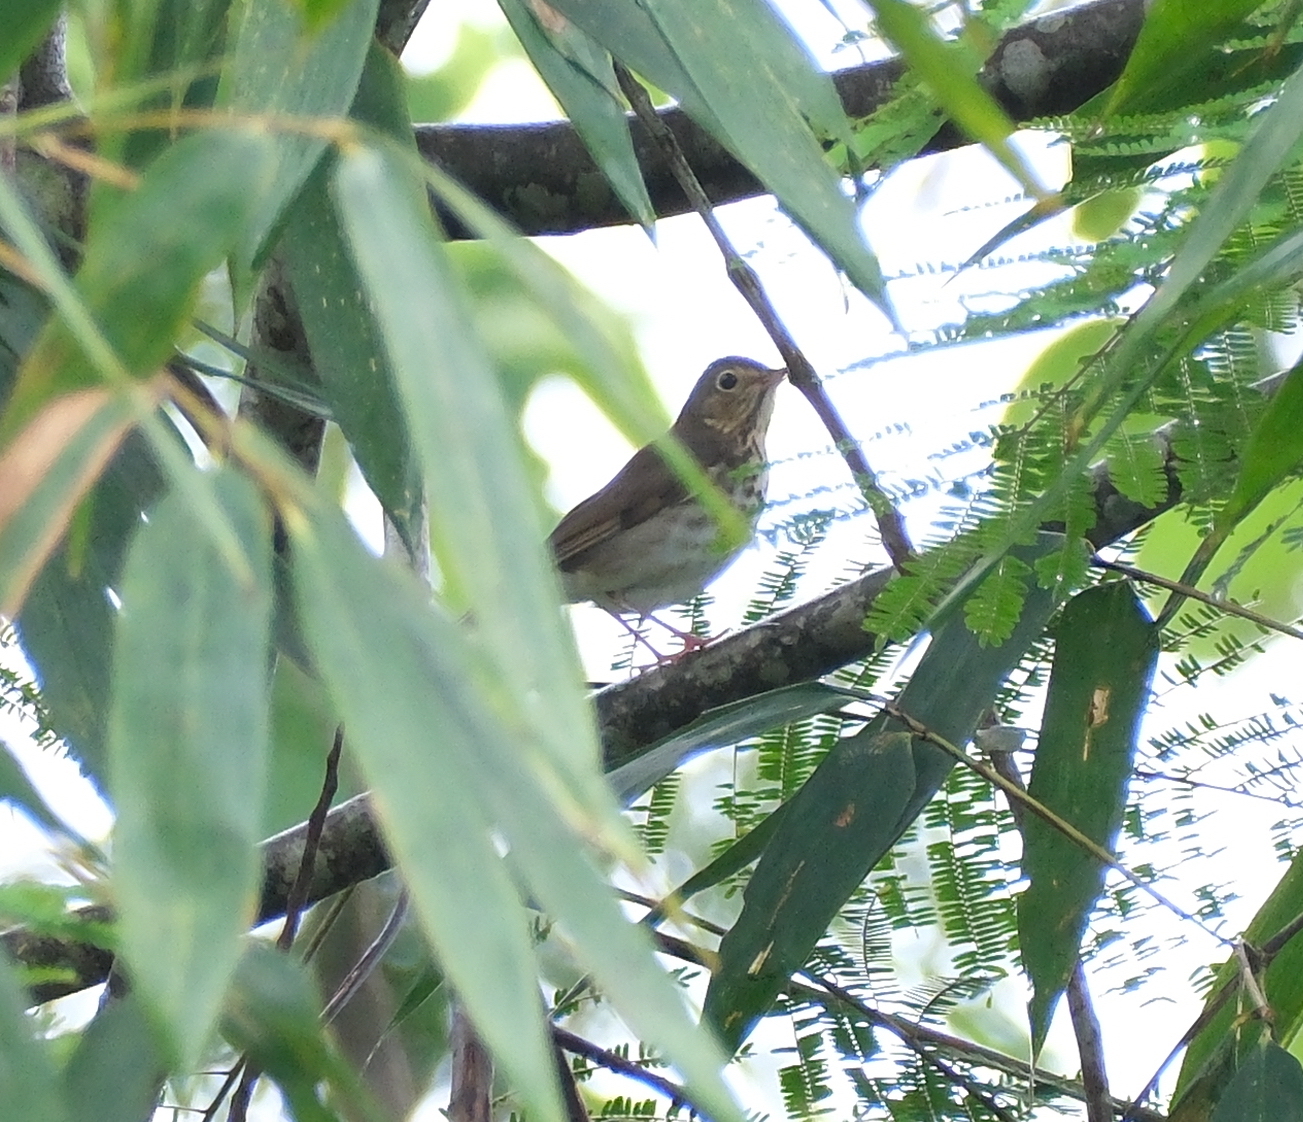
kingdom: Animalia
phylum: Chordata
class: Aves
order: Passeriformes
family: Turdidae
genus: Catharus
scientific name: Catharus ustulatus
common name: Swainson's thrush
